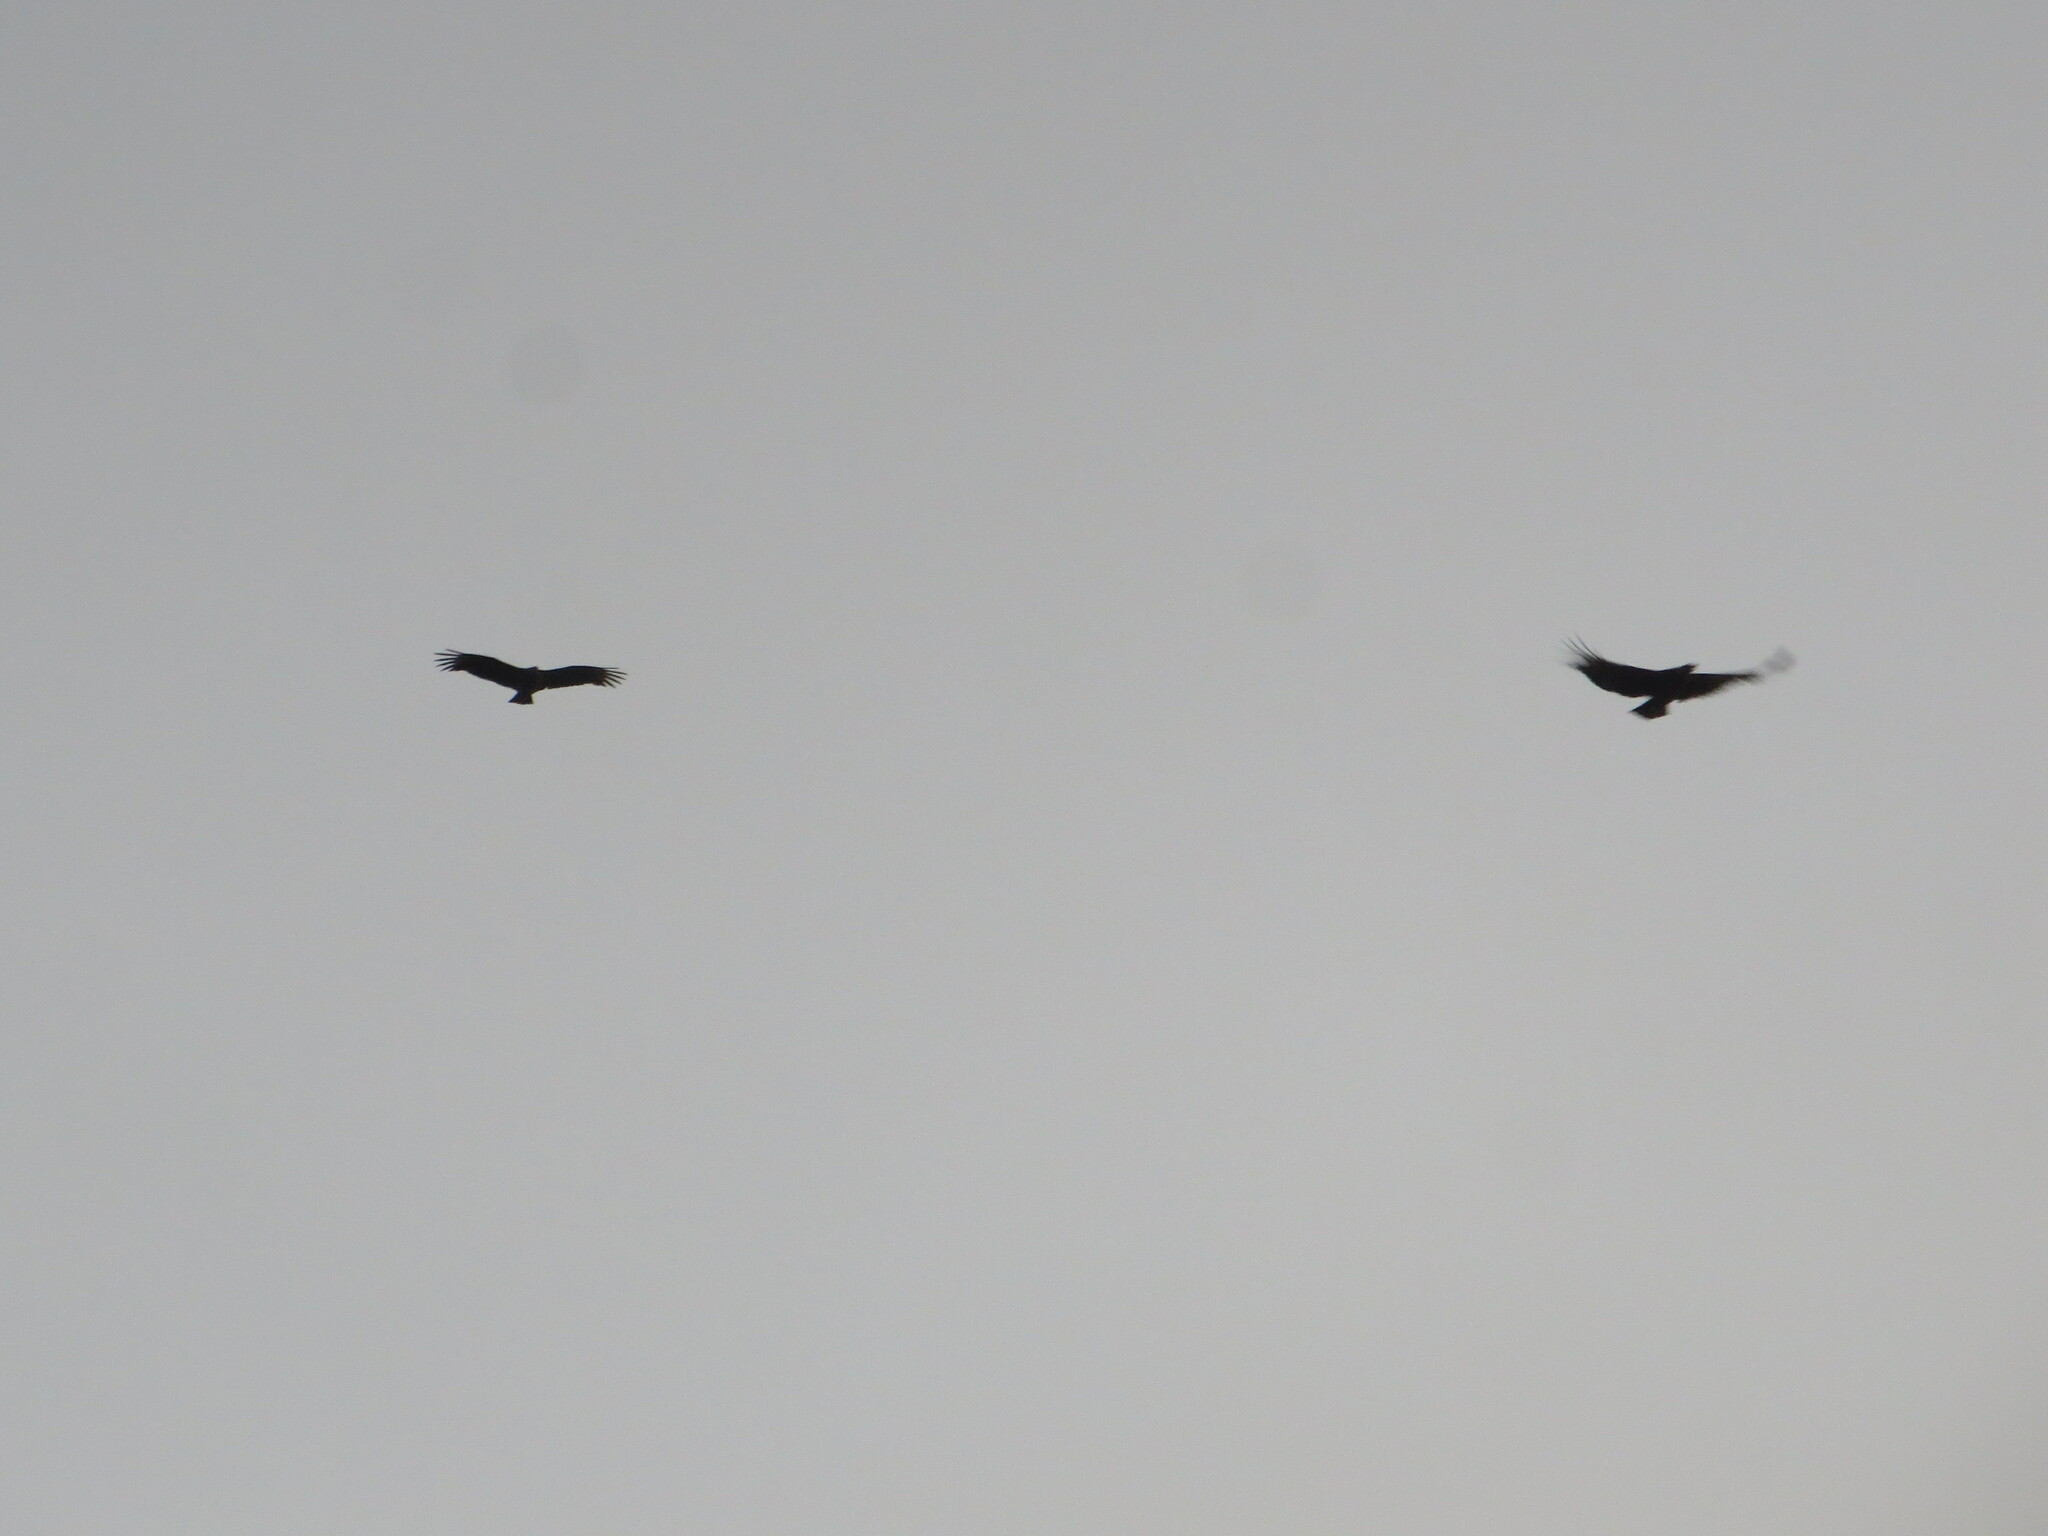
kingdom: Animalia
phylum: Chordata
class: Aves
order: Accipitriformes
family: Cathartidae
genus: Coragyps
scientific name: Coragyps atratus
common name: Black vulture
